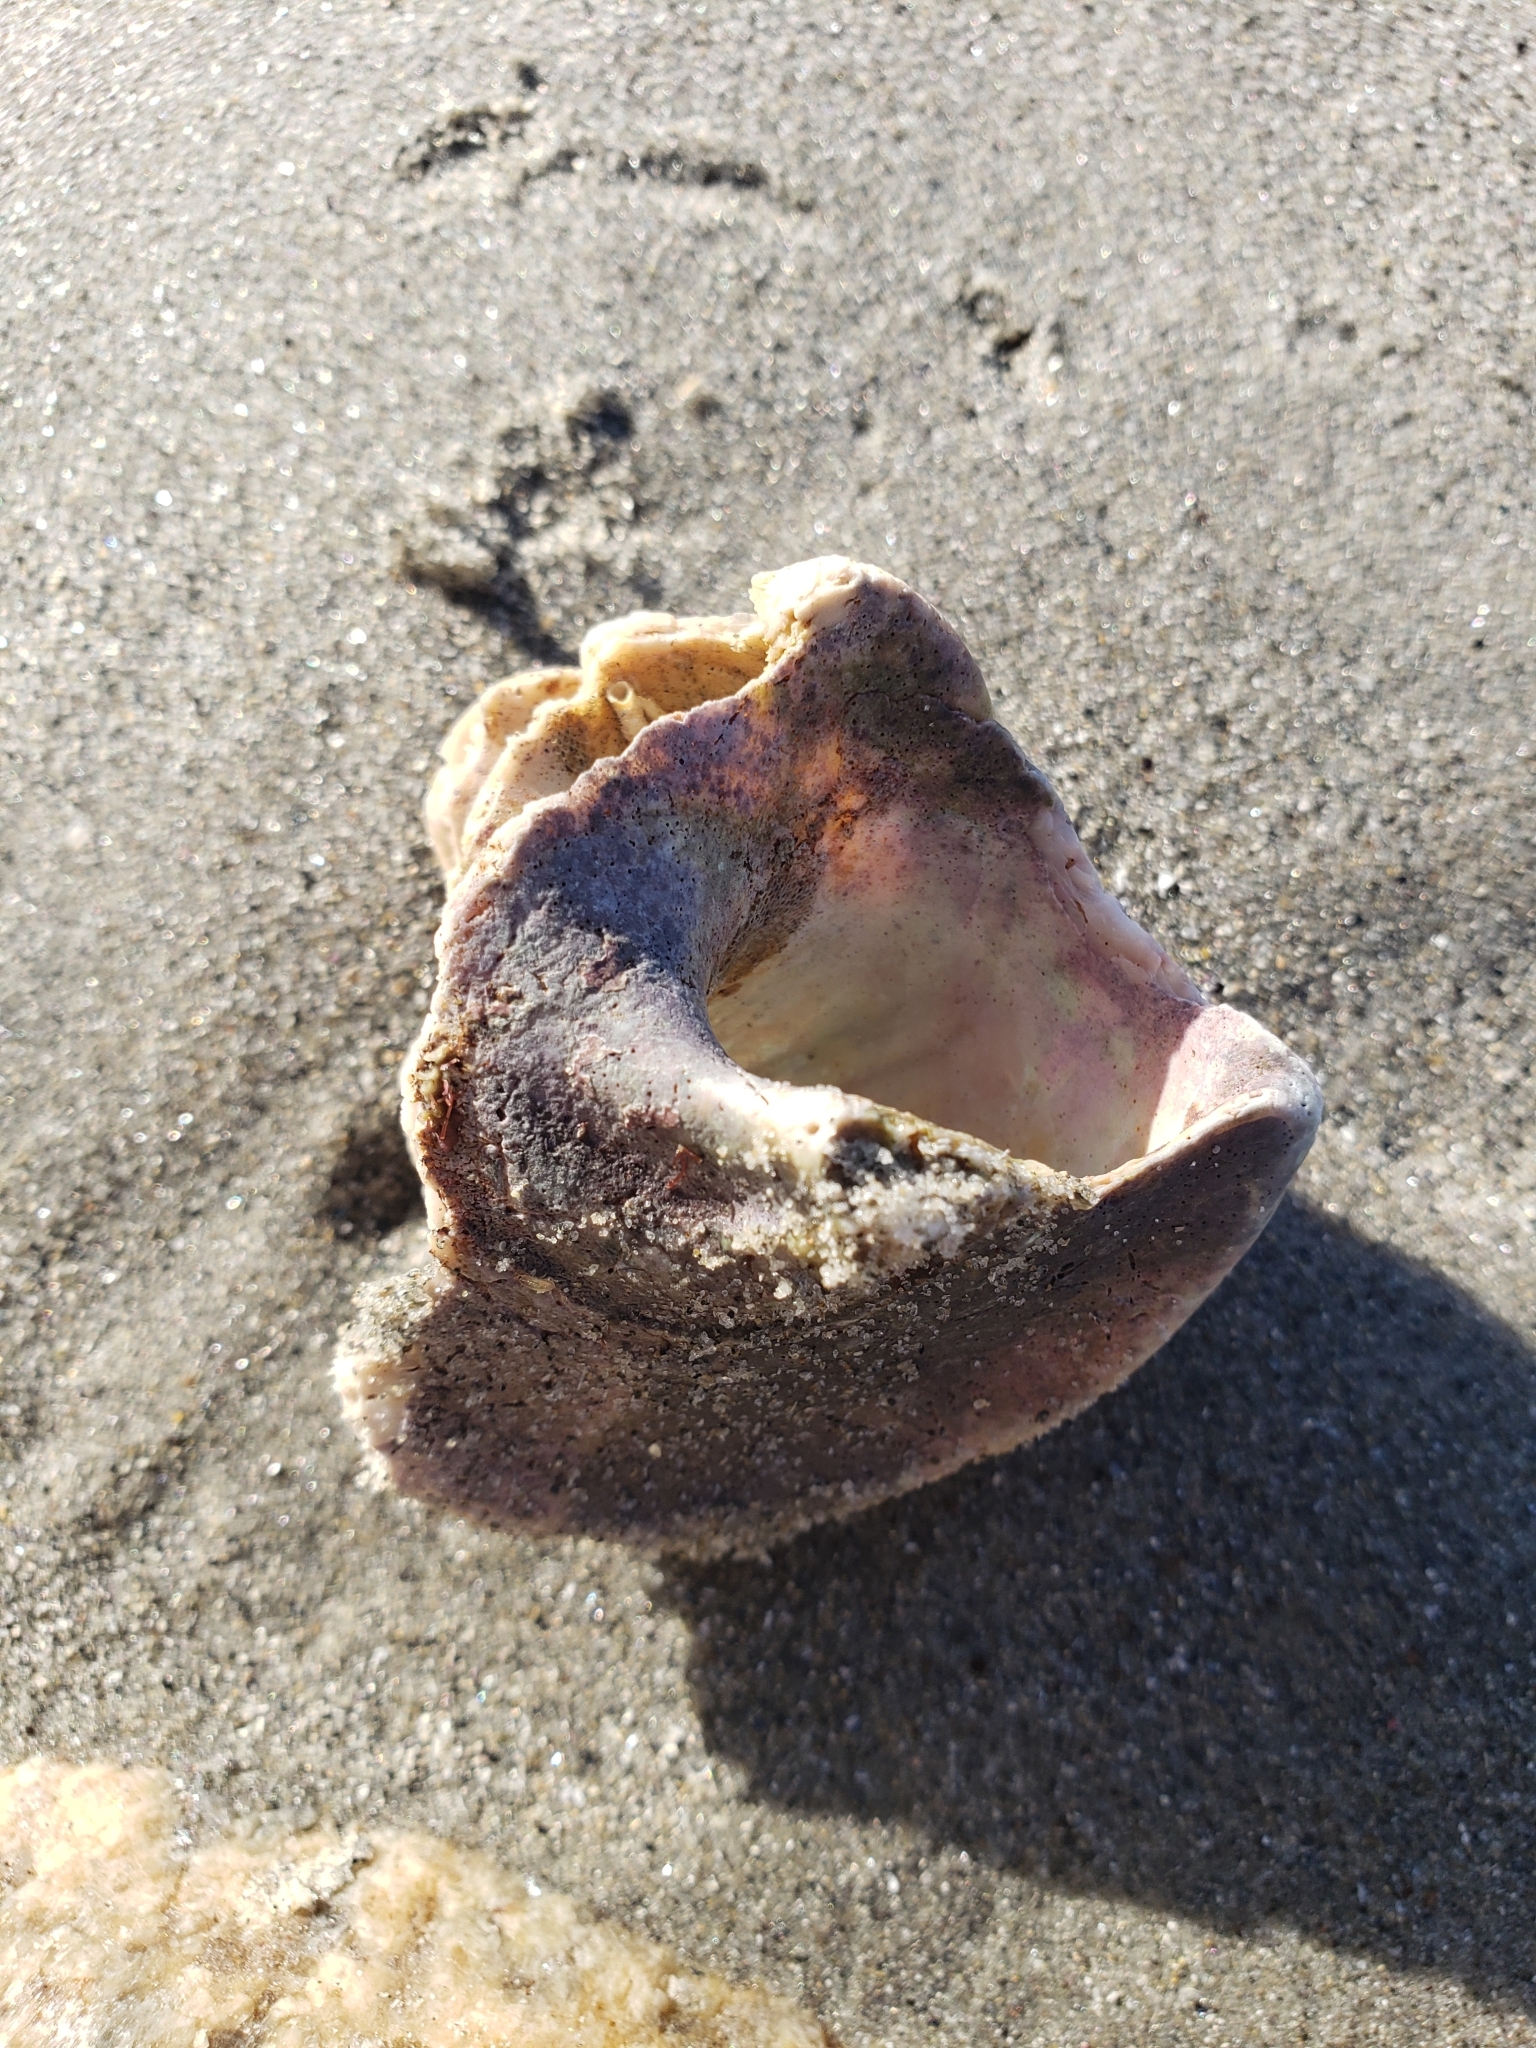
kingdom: Animalia
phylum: Mollusca
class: Gastropoda
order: Trochida
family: Turbinidae
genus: Megastraea
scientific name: Megastraea undosa
